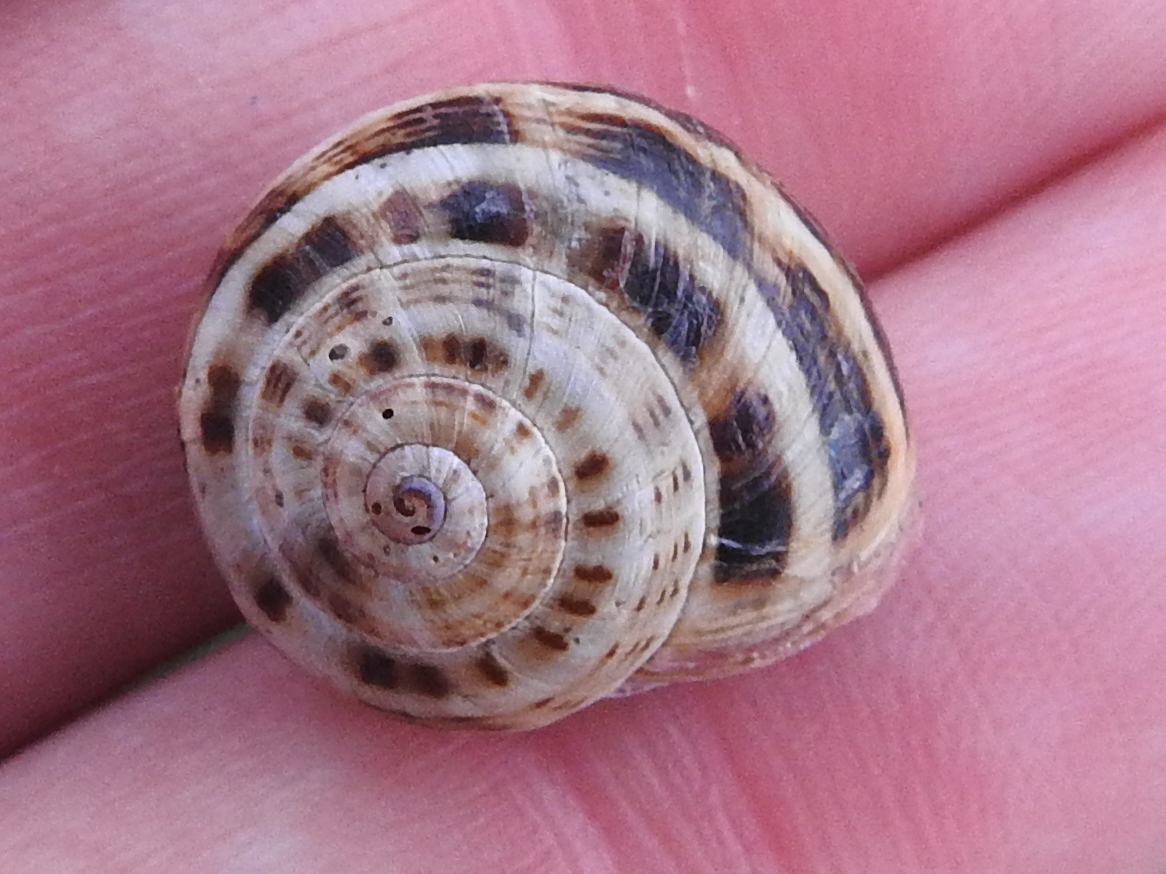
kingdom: Animalia
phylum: Mollusca
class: Gastropoda
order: Stylommatophora
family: Helicidae
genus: Theba
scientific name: Theba pisana
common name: White snail
